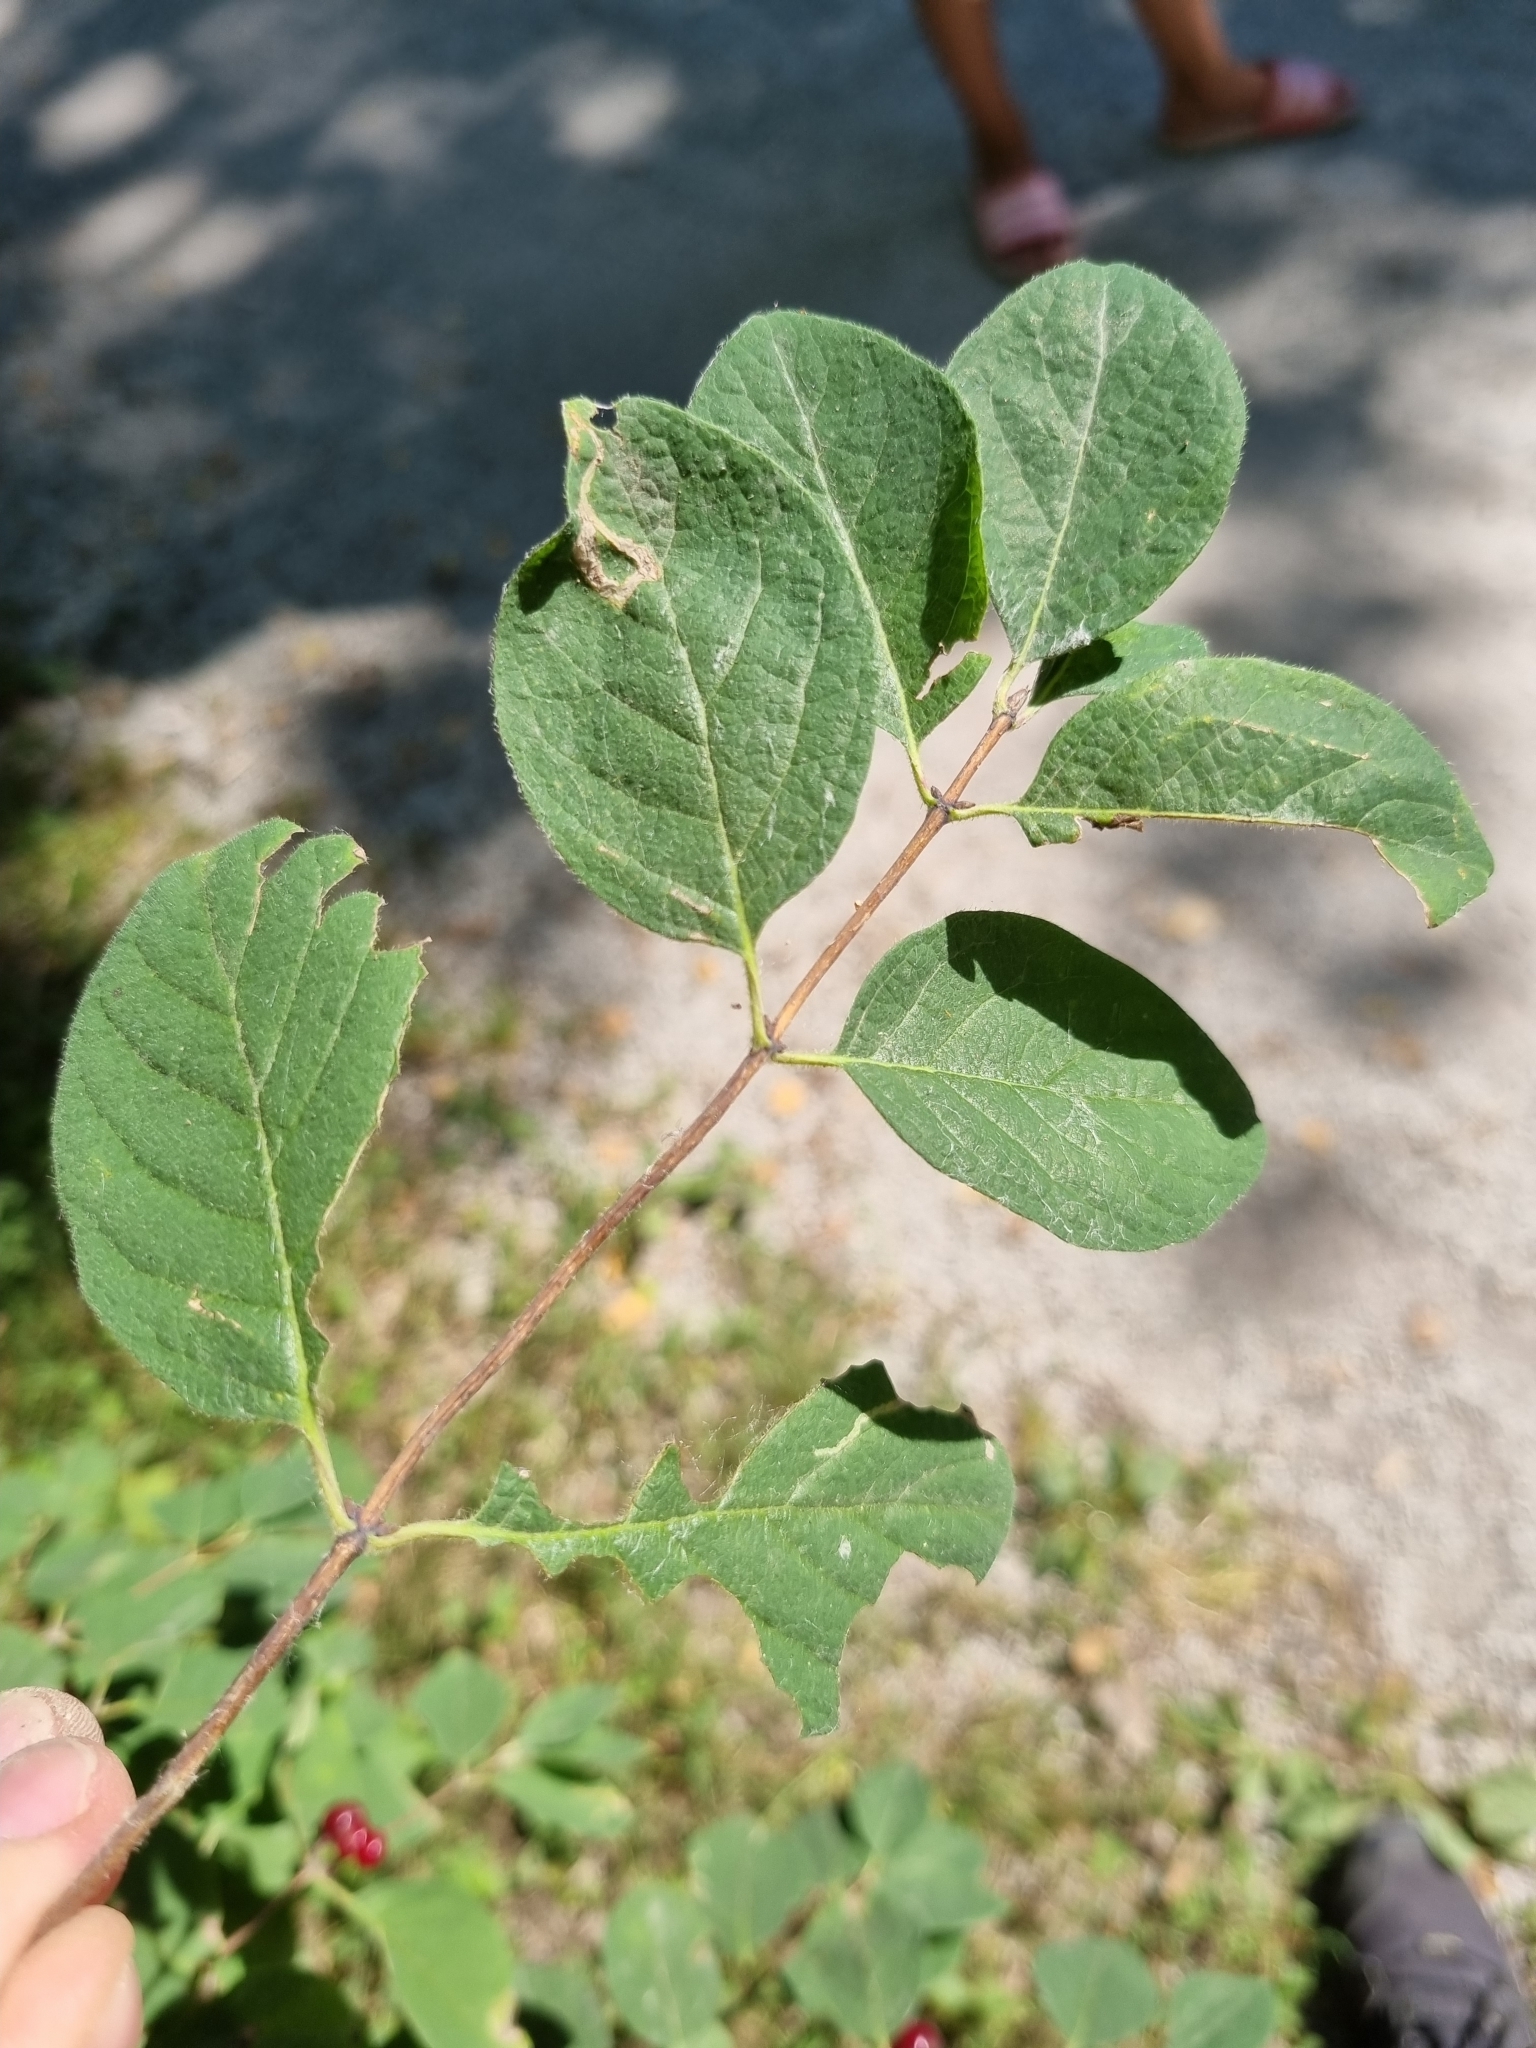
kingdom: Plantae
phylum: Tracheophyta
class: Magnoliopsida
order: Dipsacales
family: Caprifoliaceae
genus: Lonicera
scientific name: Lonicera xylosteum
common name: Fly honeysuckle
